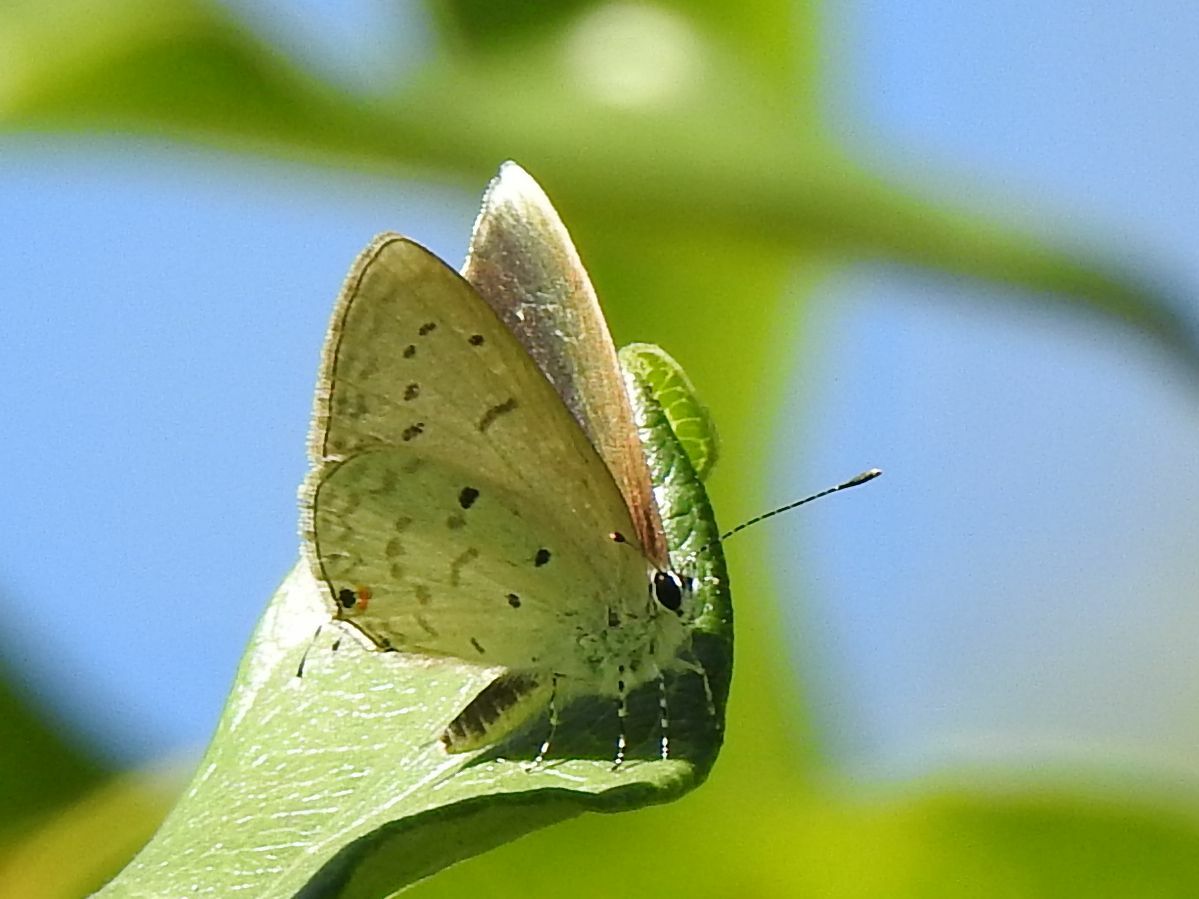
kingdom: Animalia
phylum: Arthropoda
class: Insecta
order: Lepidoptera
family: Lycaenidae
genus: Eicochrysops
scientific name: Eicochrysops hippocrates
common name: White-tipped blue
